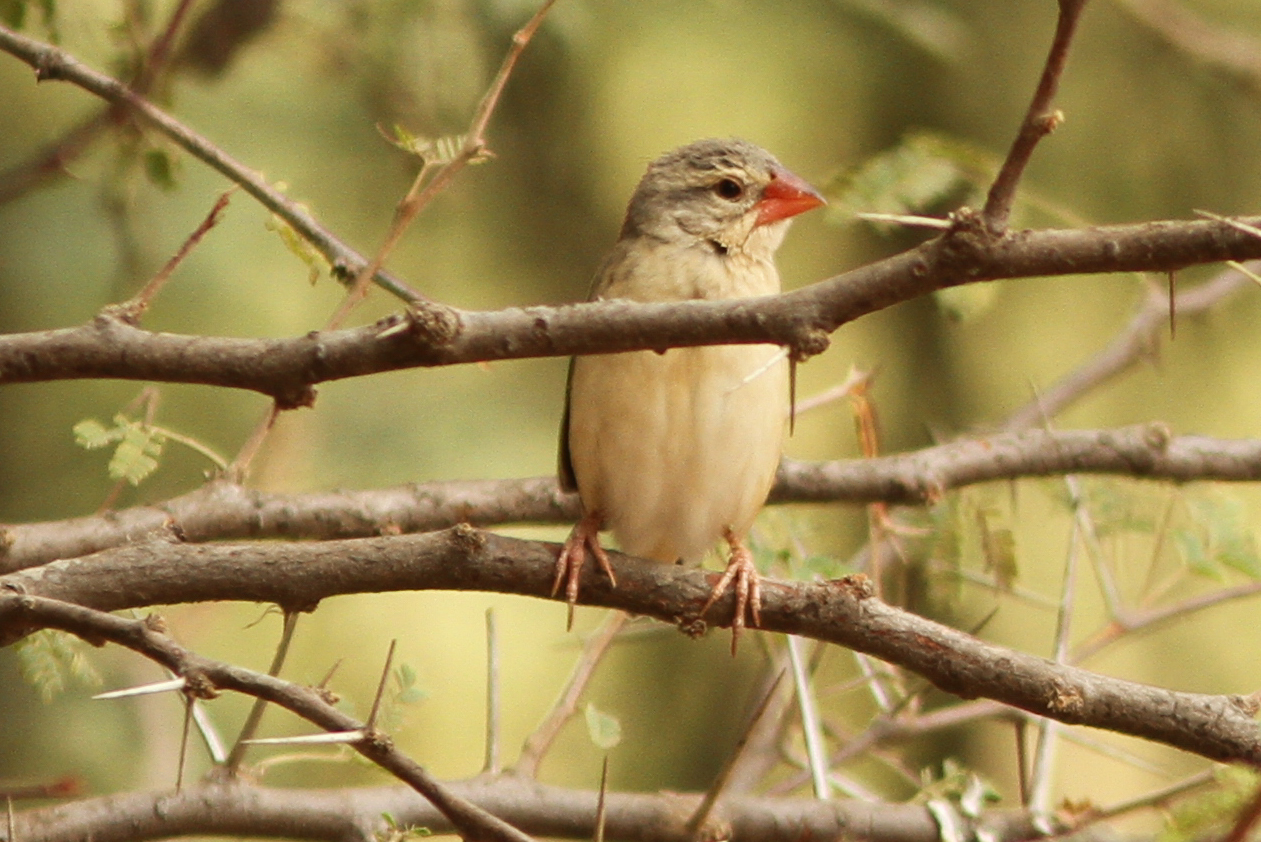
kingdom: Animalia
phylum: Chordata
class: Aves
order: Passeriformes
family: Ploceidae
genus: Quelea
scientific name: Quelea quelea
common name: Red-billed quelea
